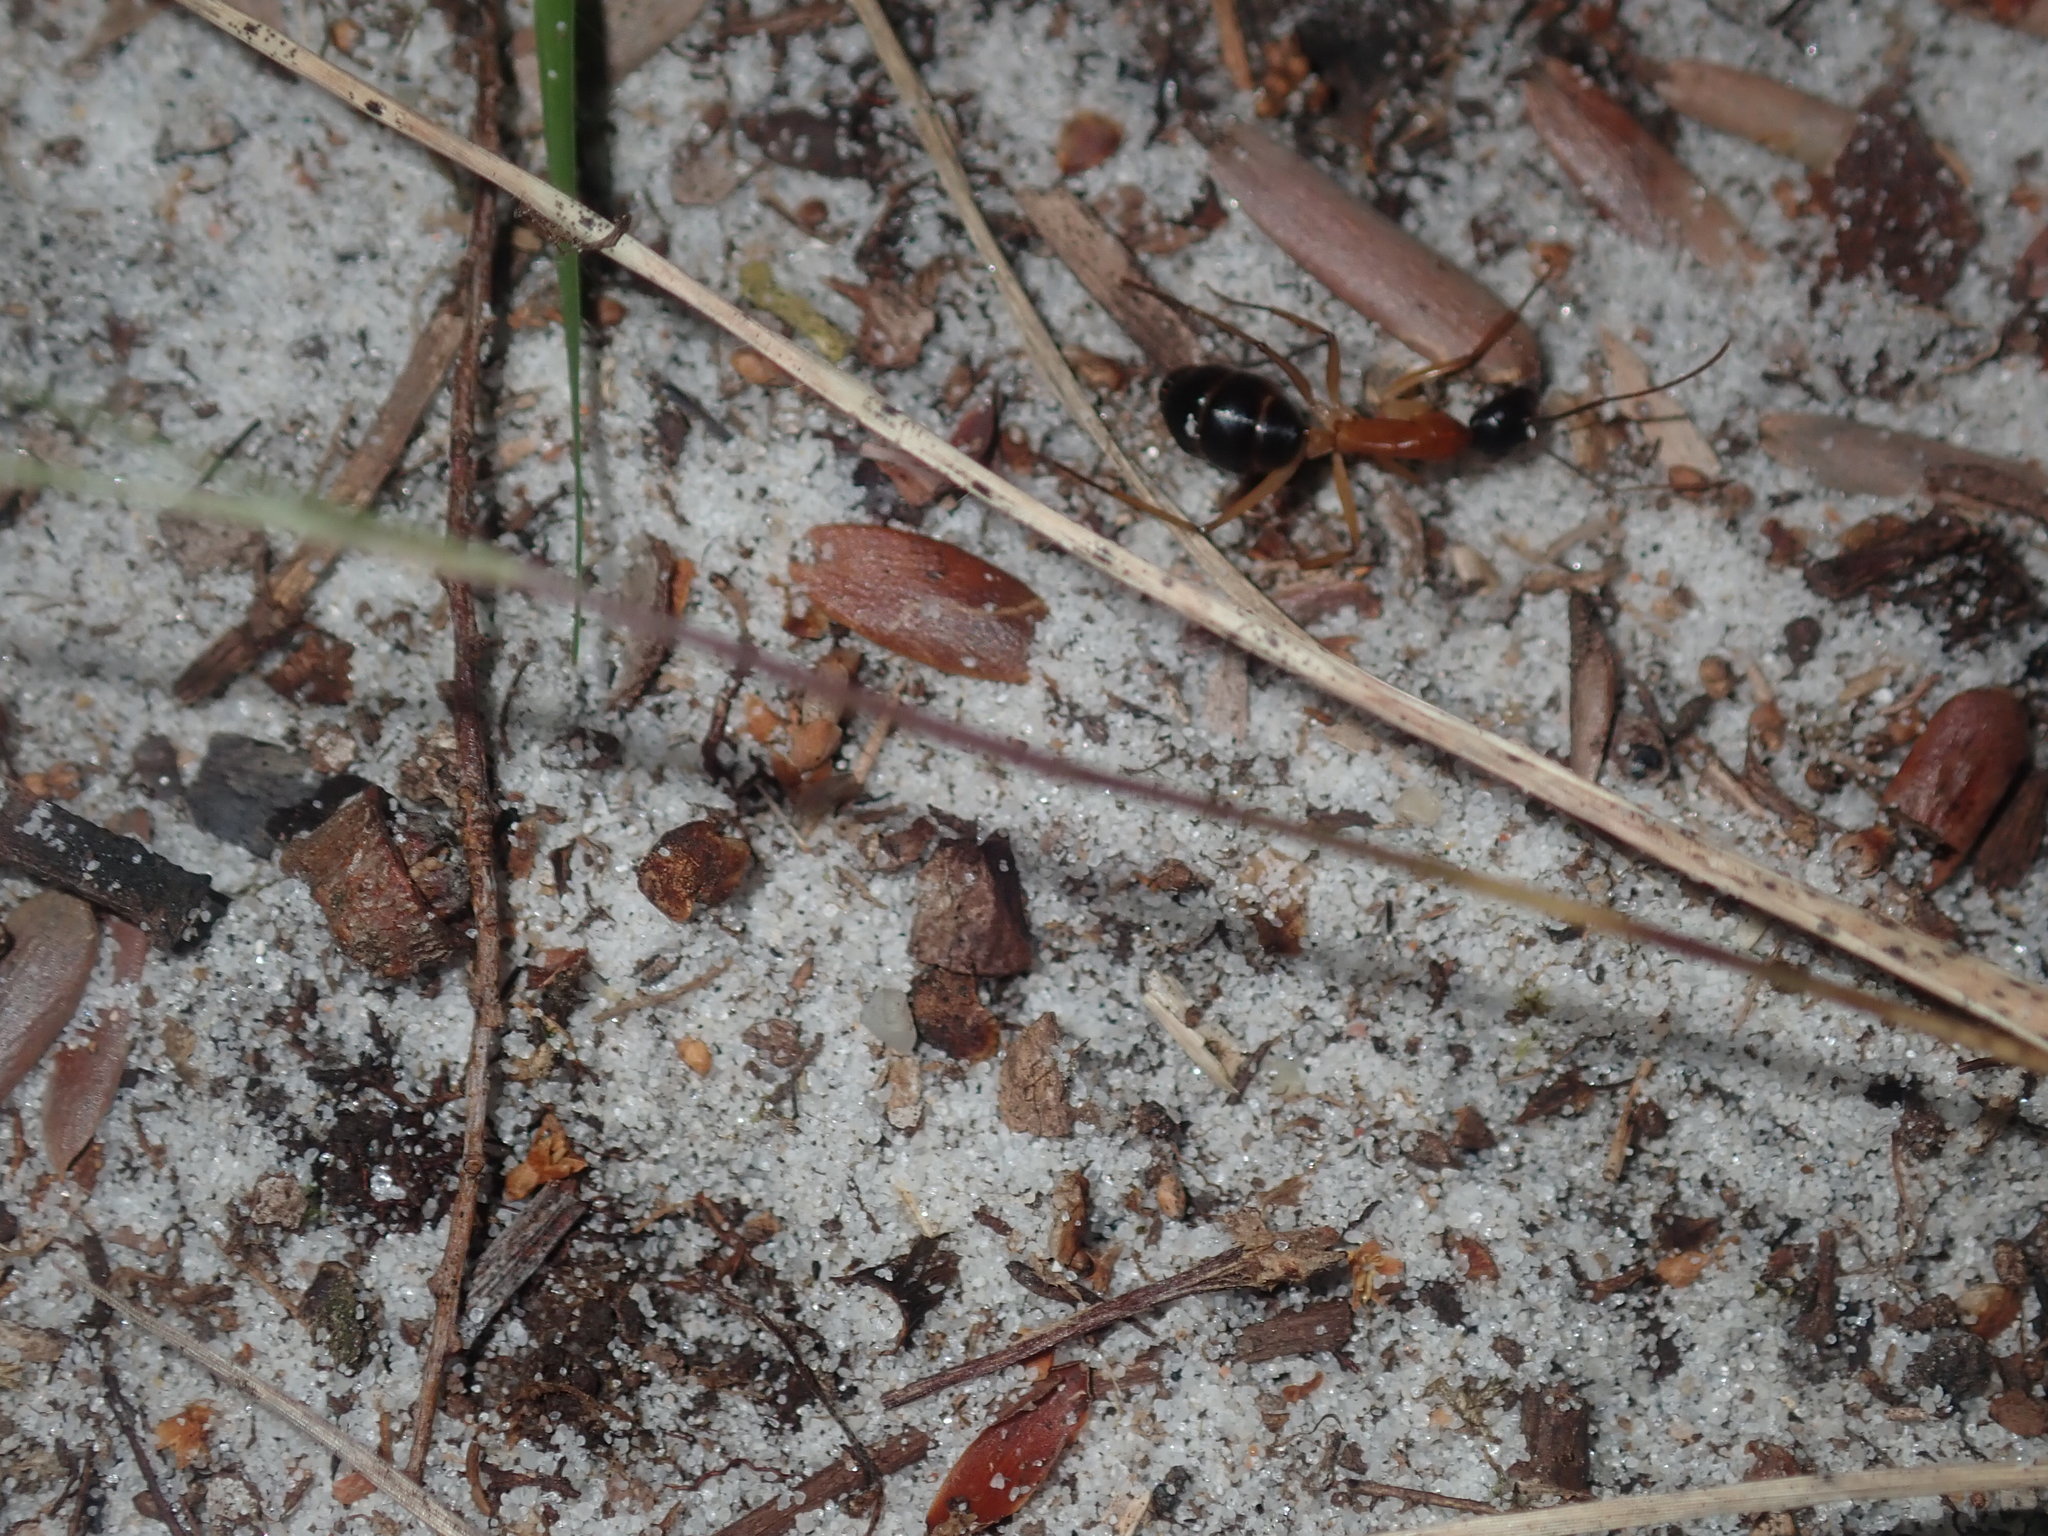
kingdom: Animalia
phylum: Arthropoda
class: Insecta
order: Hymenoptera
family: Formicidae
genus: Camponotus
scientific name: Camponotus nigriceps
